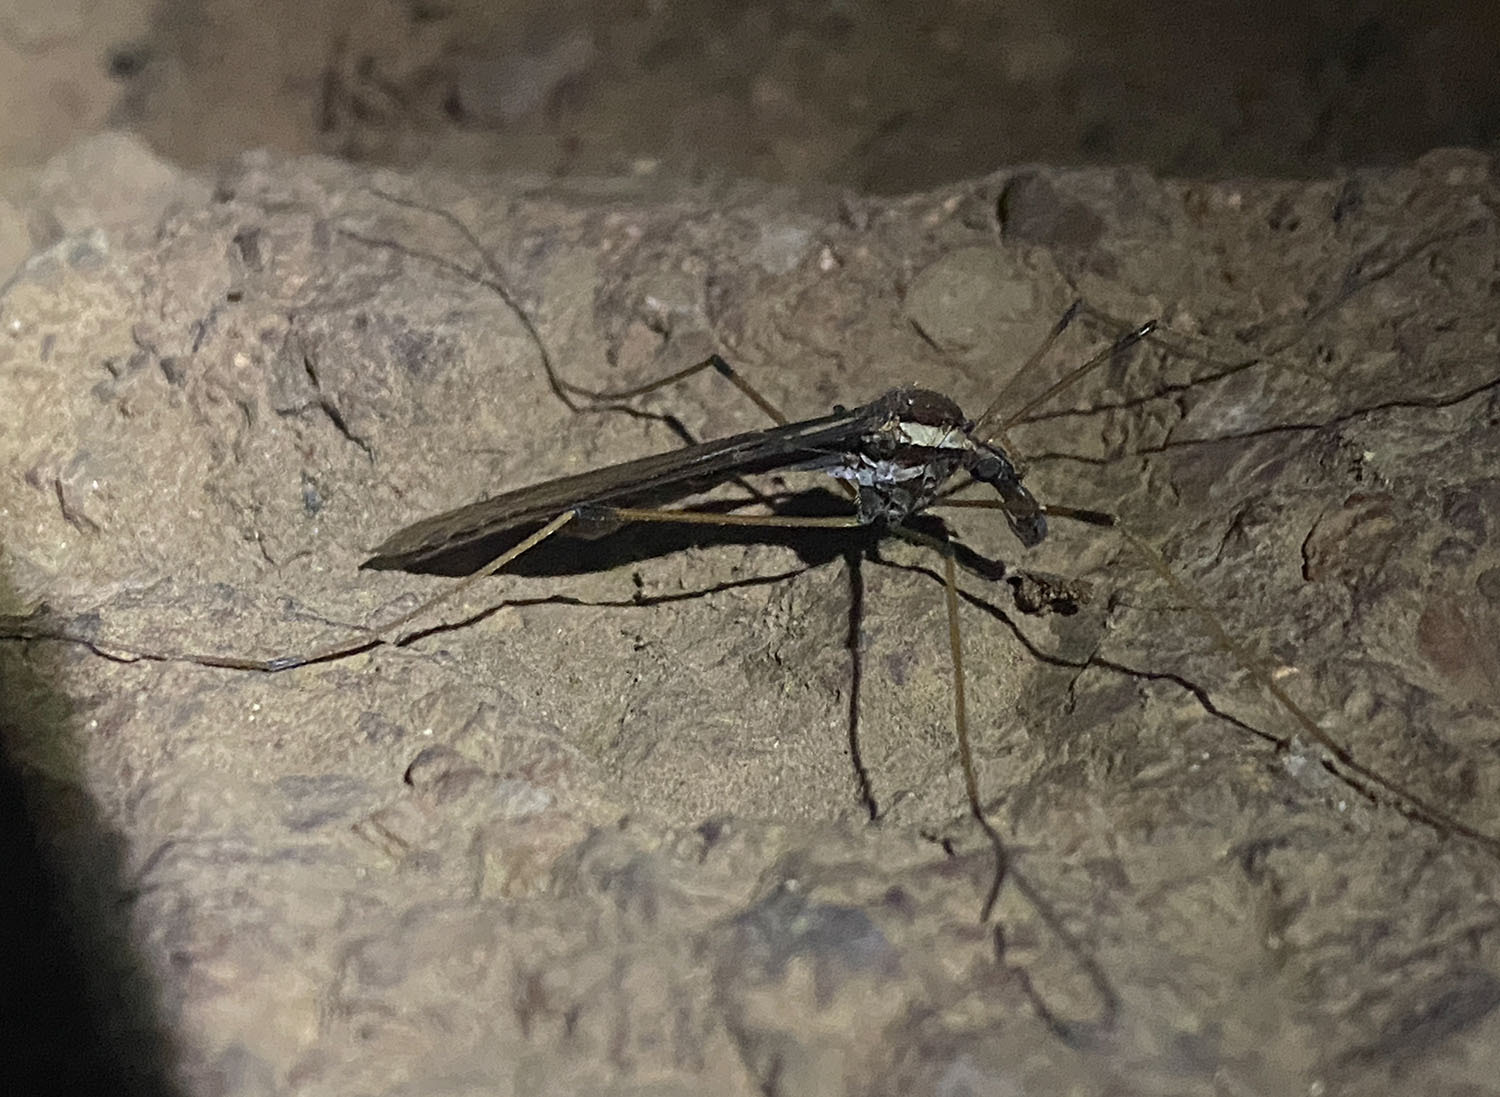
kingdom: Animalia
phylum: Arthropoda
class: Insecta
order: Diptera
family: Tipulidae
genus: Holorusia
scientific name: Holorusia hespera
